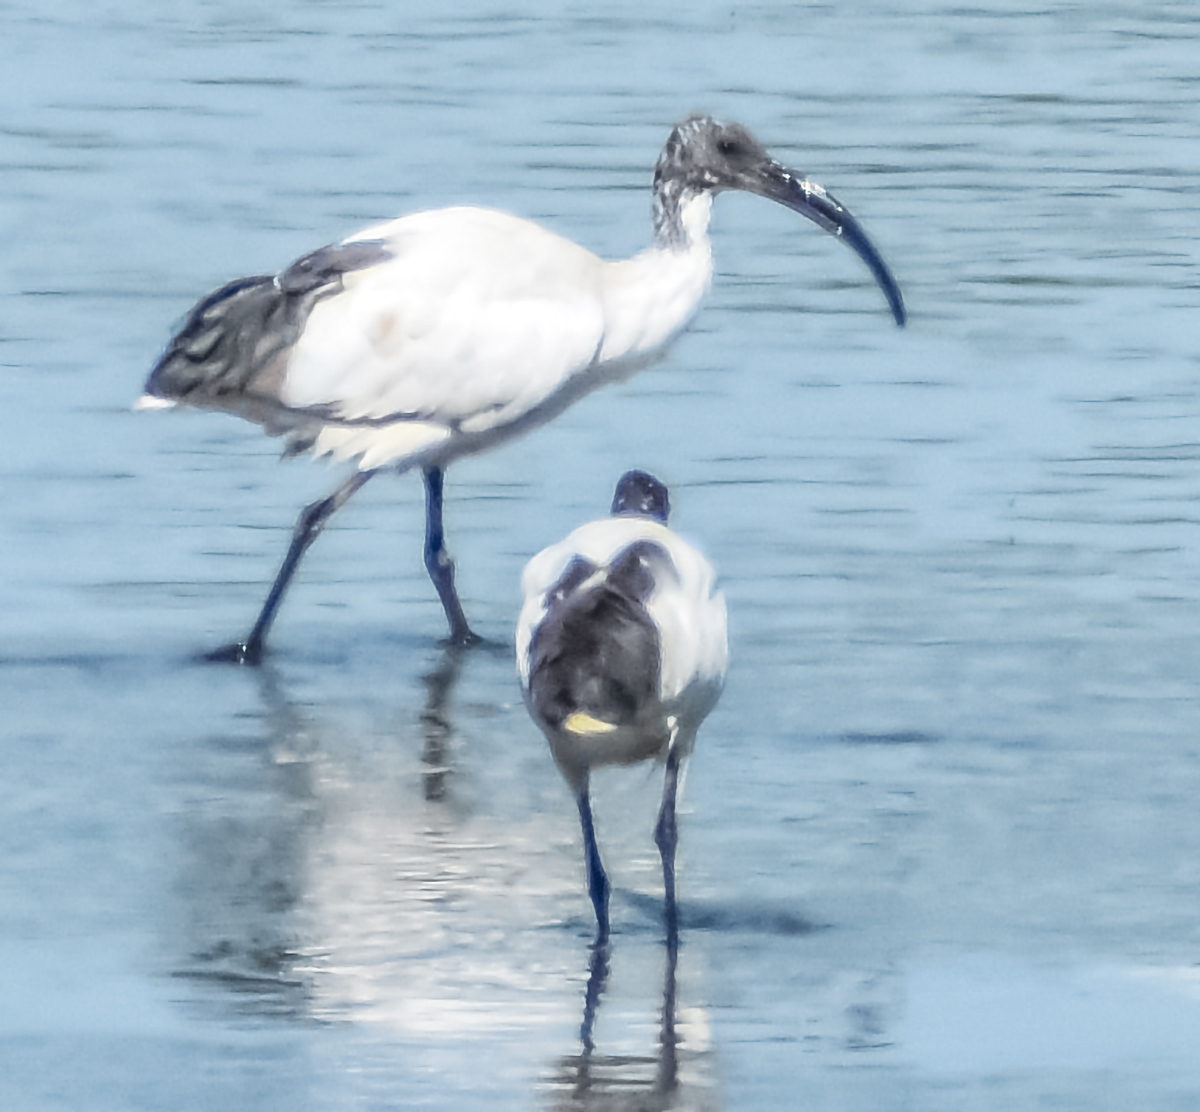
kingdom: Animalia
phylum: Chordata
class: Aves
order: Pelecaniformes
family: Threskiornithidae
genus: Threskiornis
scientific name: Threskiornis aethiopicus
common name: Sacred ibis
